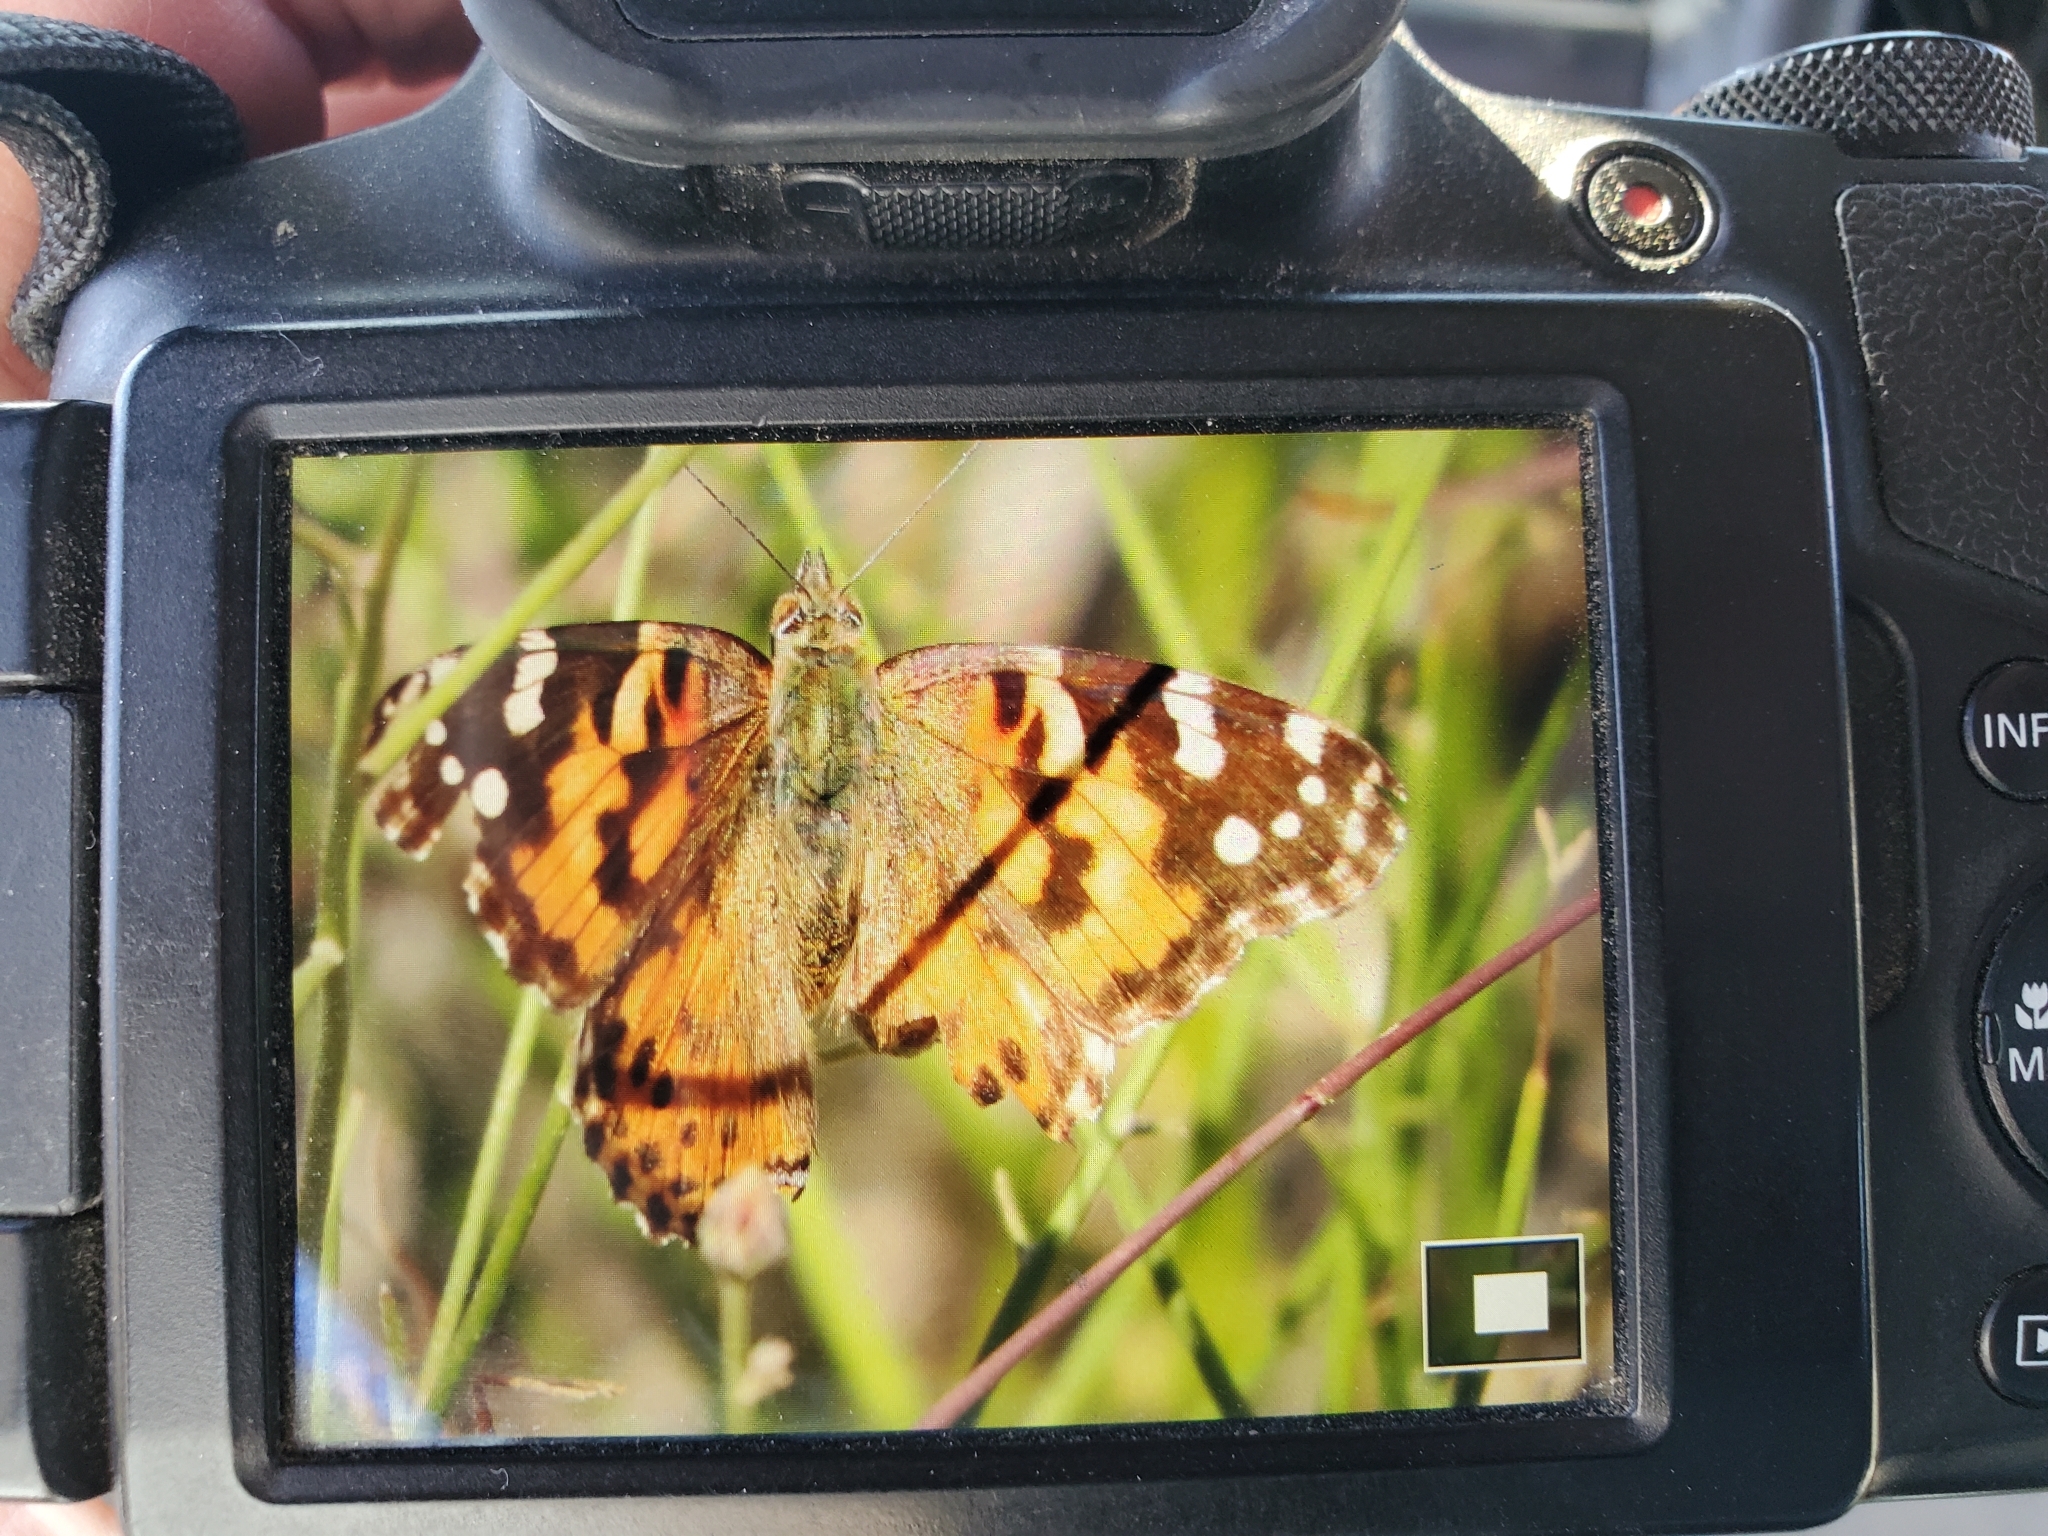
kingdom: Animalia
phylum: Arthropoda
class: Insecta
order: Lepidoptera
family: Nymphalidae
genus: Vanessa
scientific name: Vanessa cardui
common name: Painted lady
